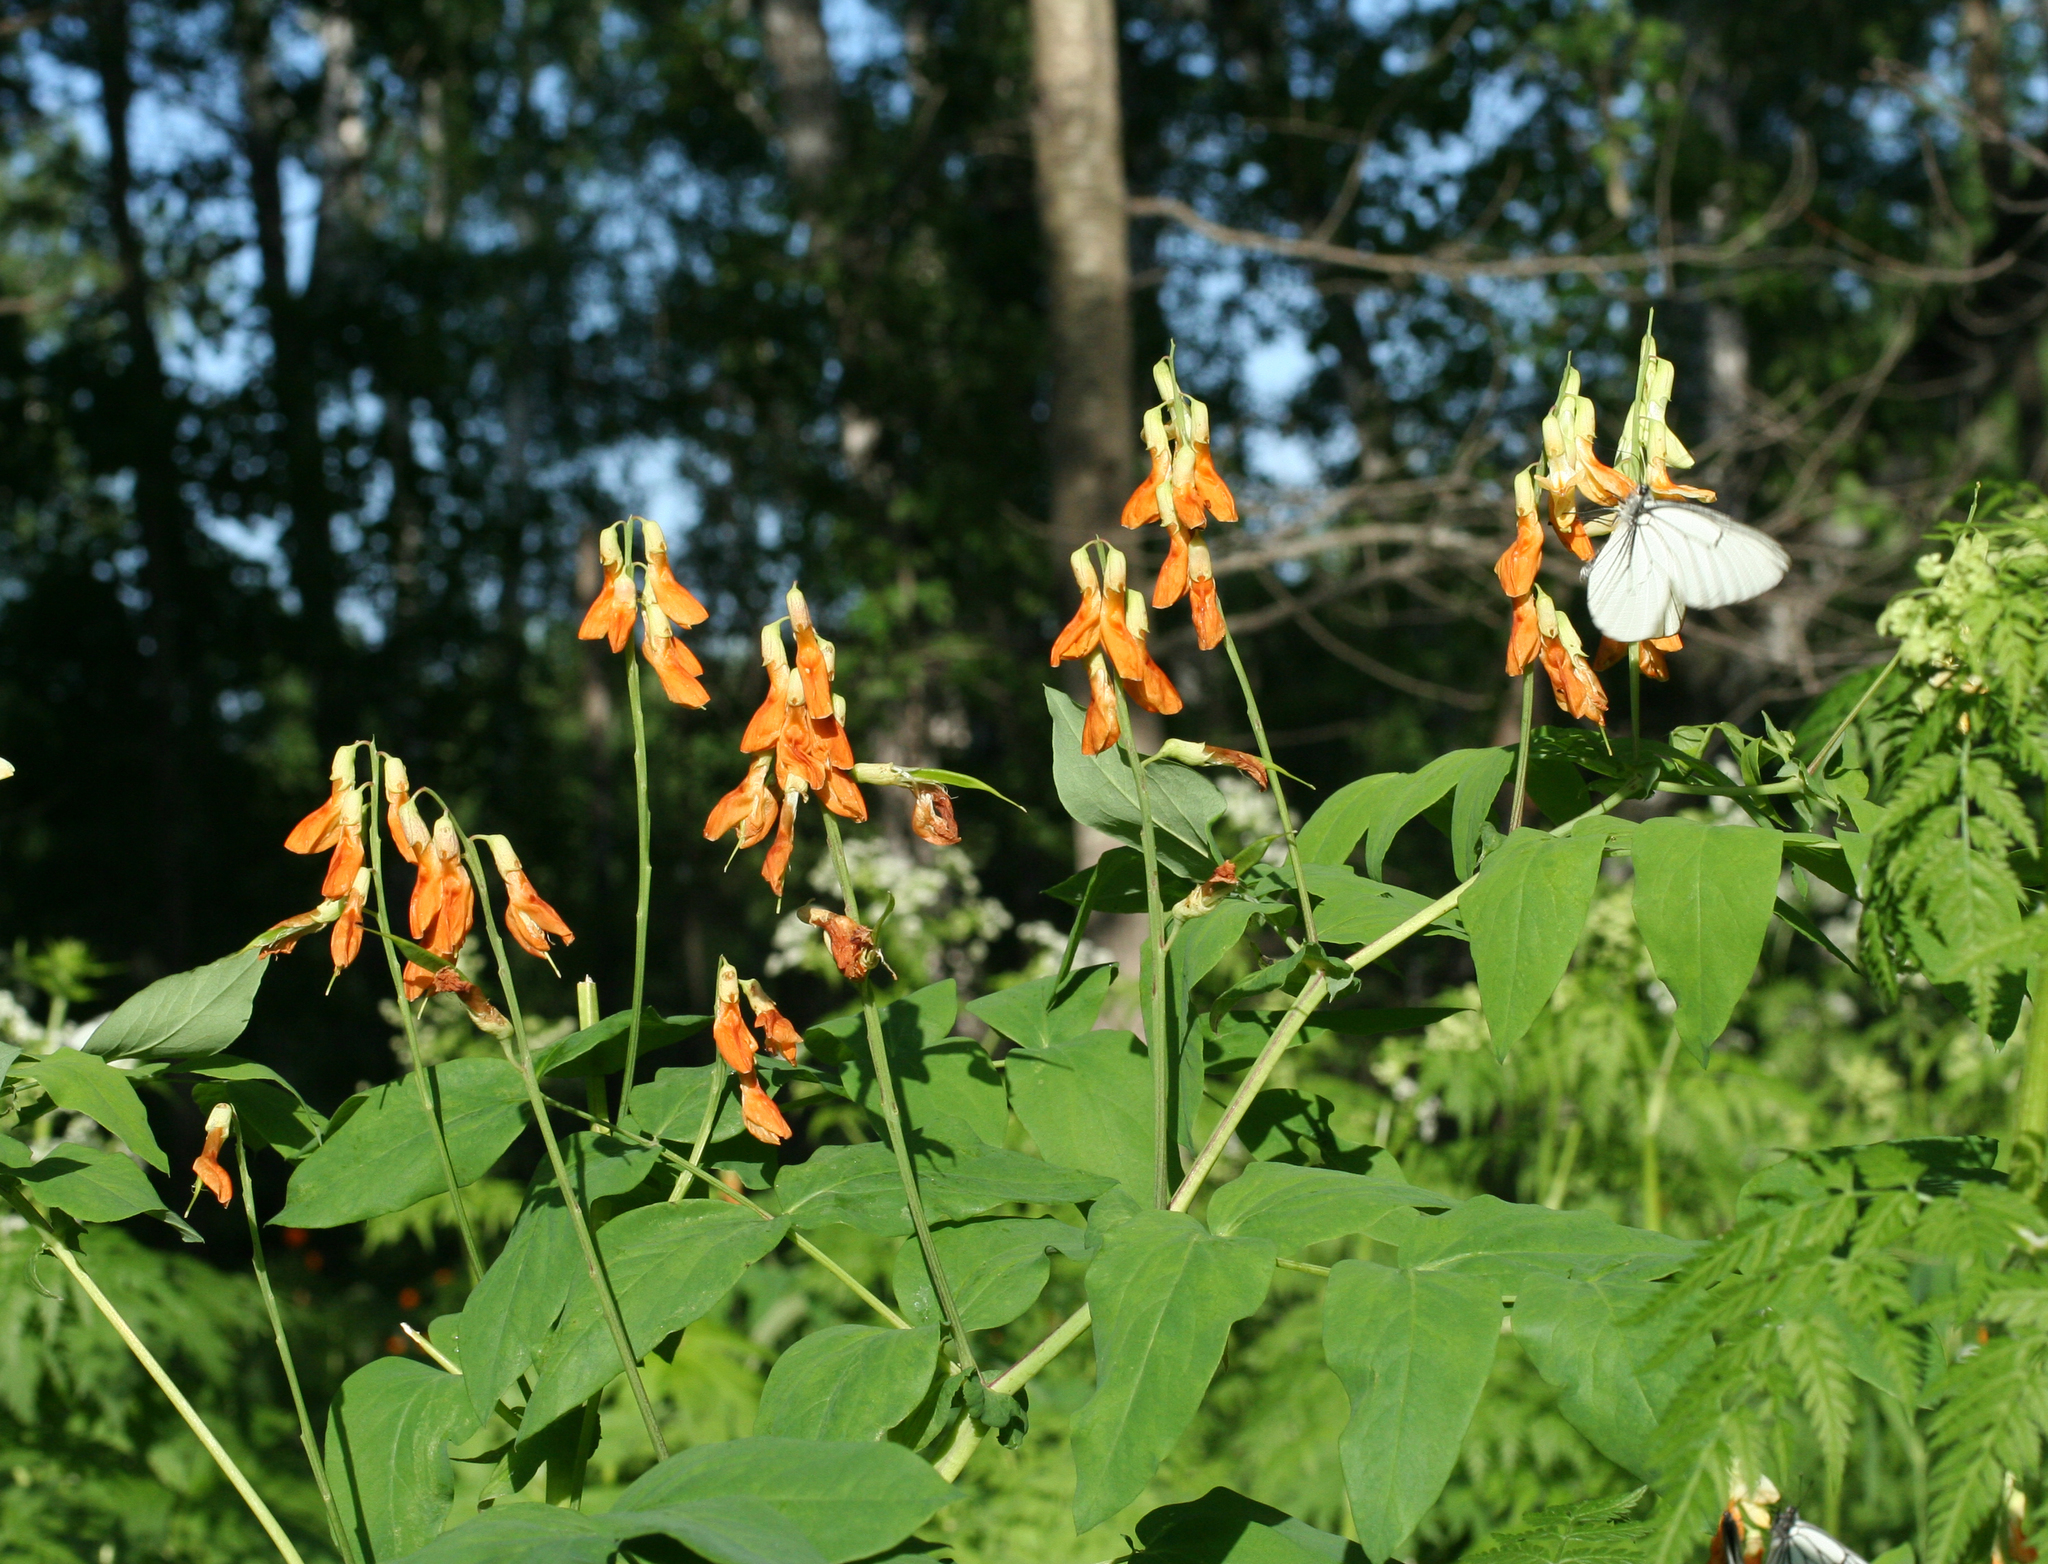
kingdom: Plantae
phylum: Tracheophyta
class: Magnoliopsida
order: Fabales
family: Fabaceae
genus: Lathyrus
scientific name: Lathyrus gmelinii
